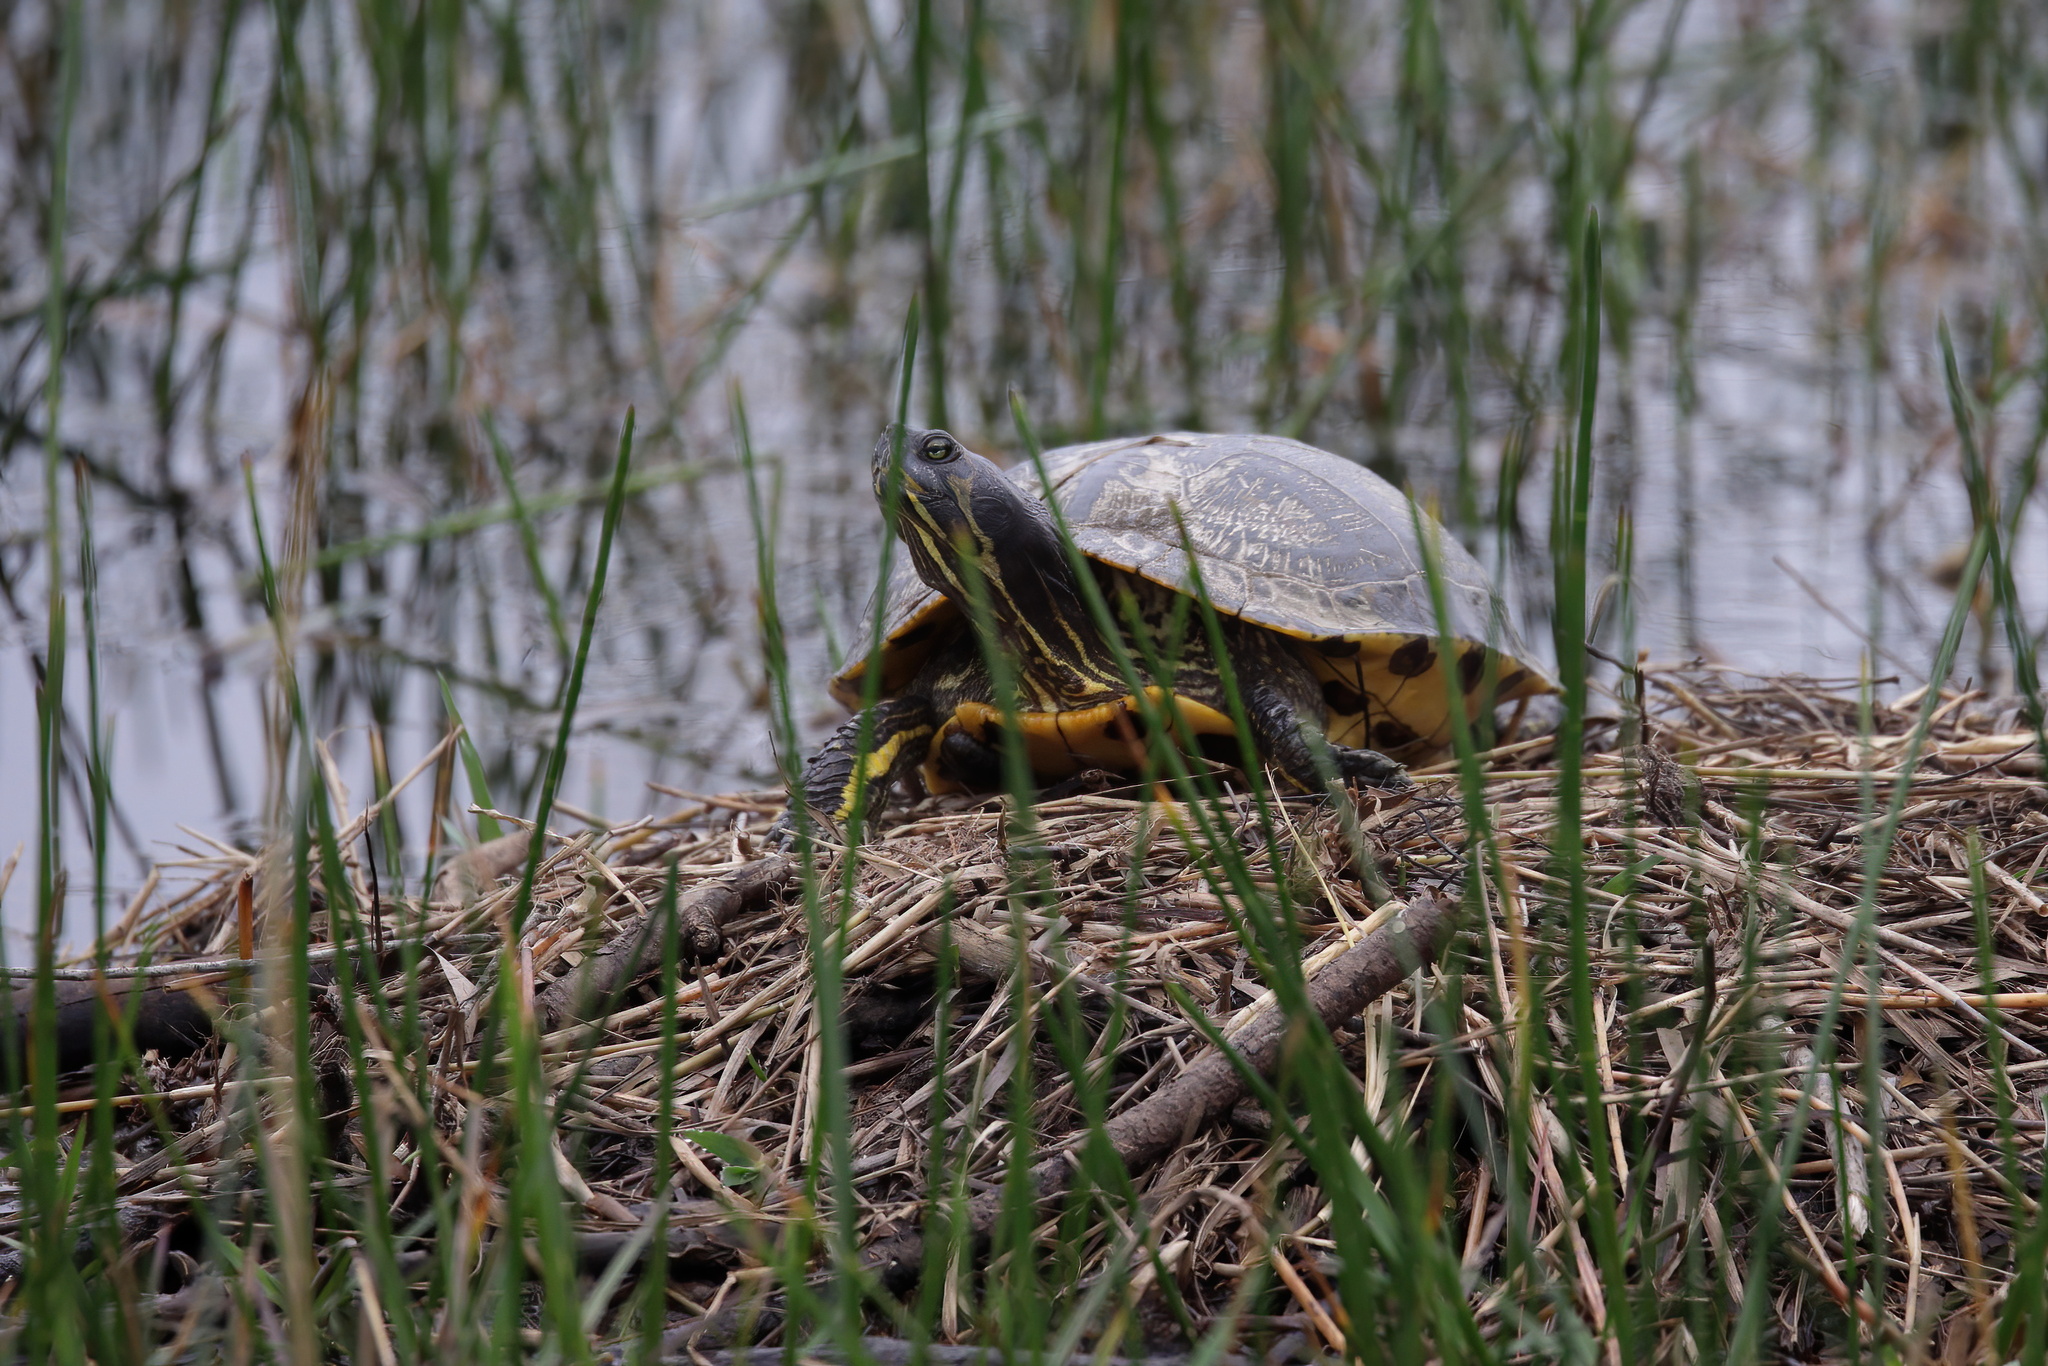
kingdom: Animalia
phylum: Chordata
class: Testudines
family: Emydidae
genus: Trachemys
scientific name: Trachemys scripta
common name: Slider
